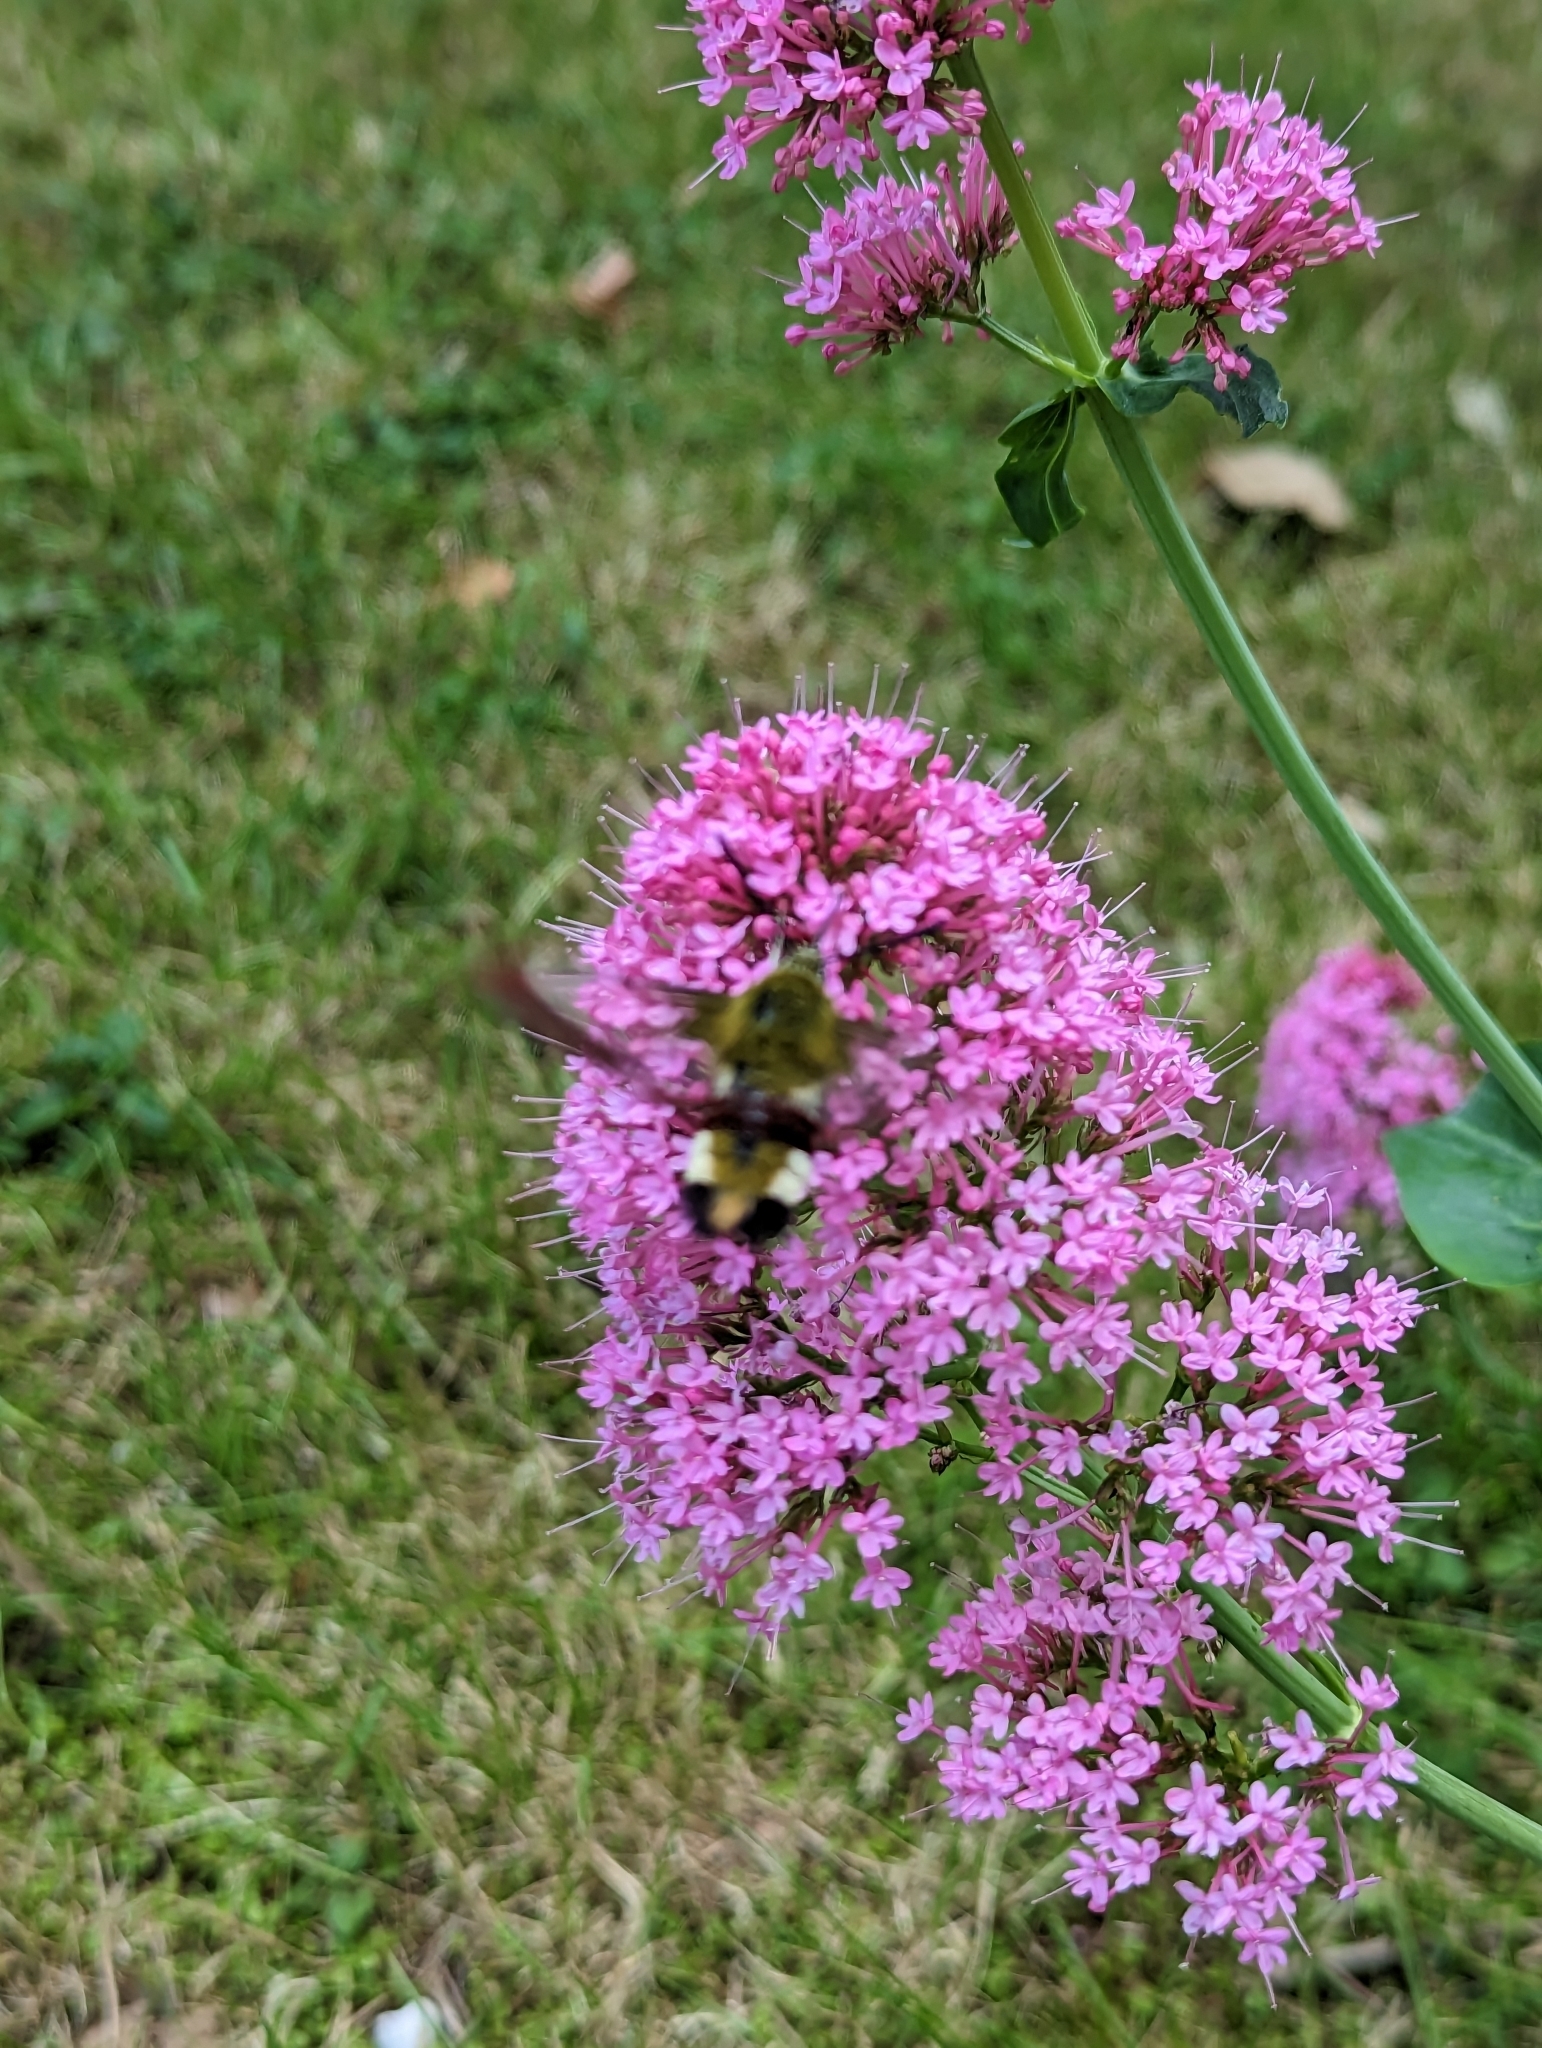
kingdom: Animalia
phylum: Arthropoda
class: Insecta
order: Lepidoptera
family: Sphingidae
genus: Hemaris
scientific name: Hemaris fuciformis
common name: Broad-bordered bee hawk-moth
